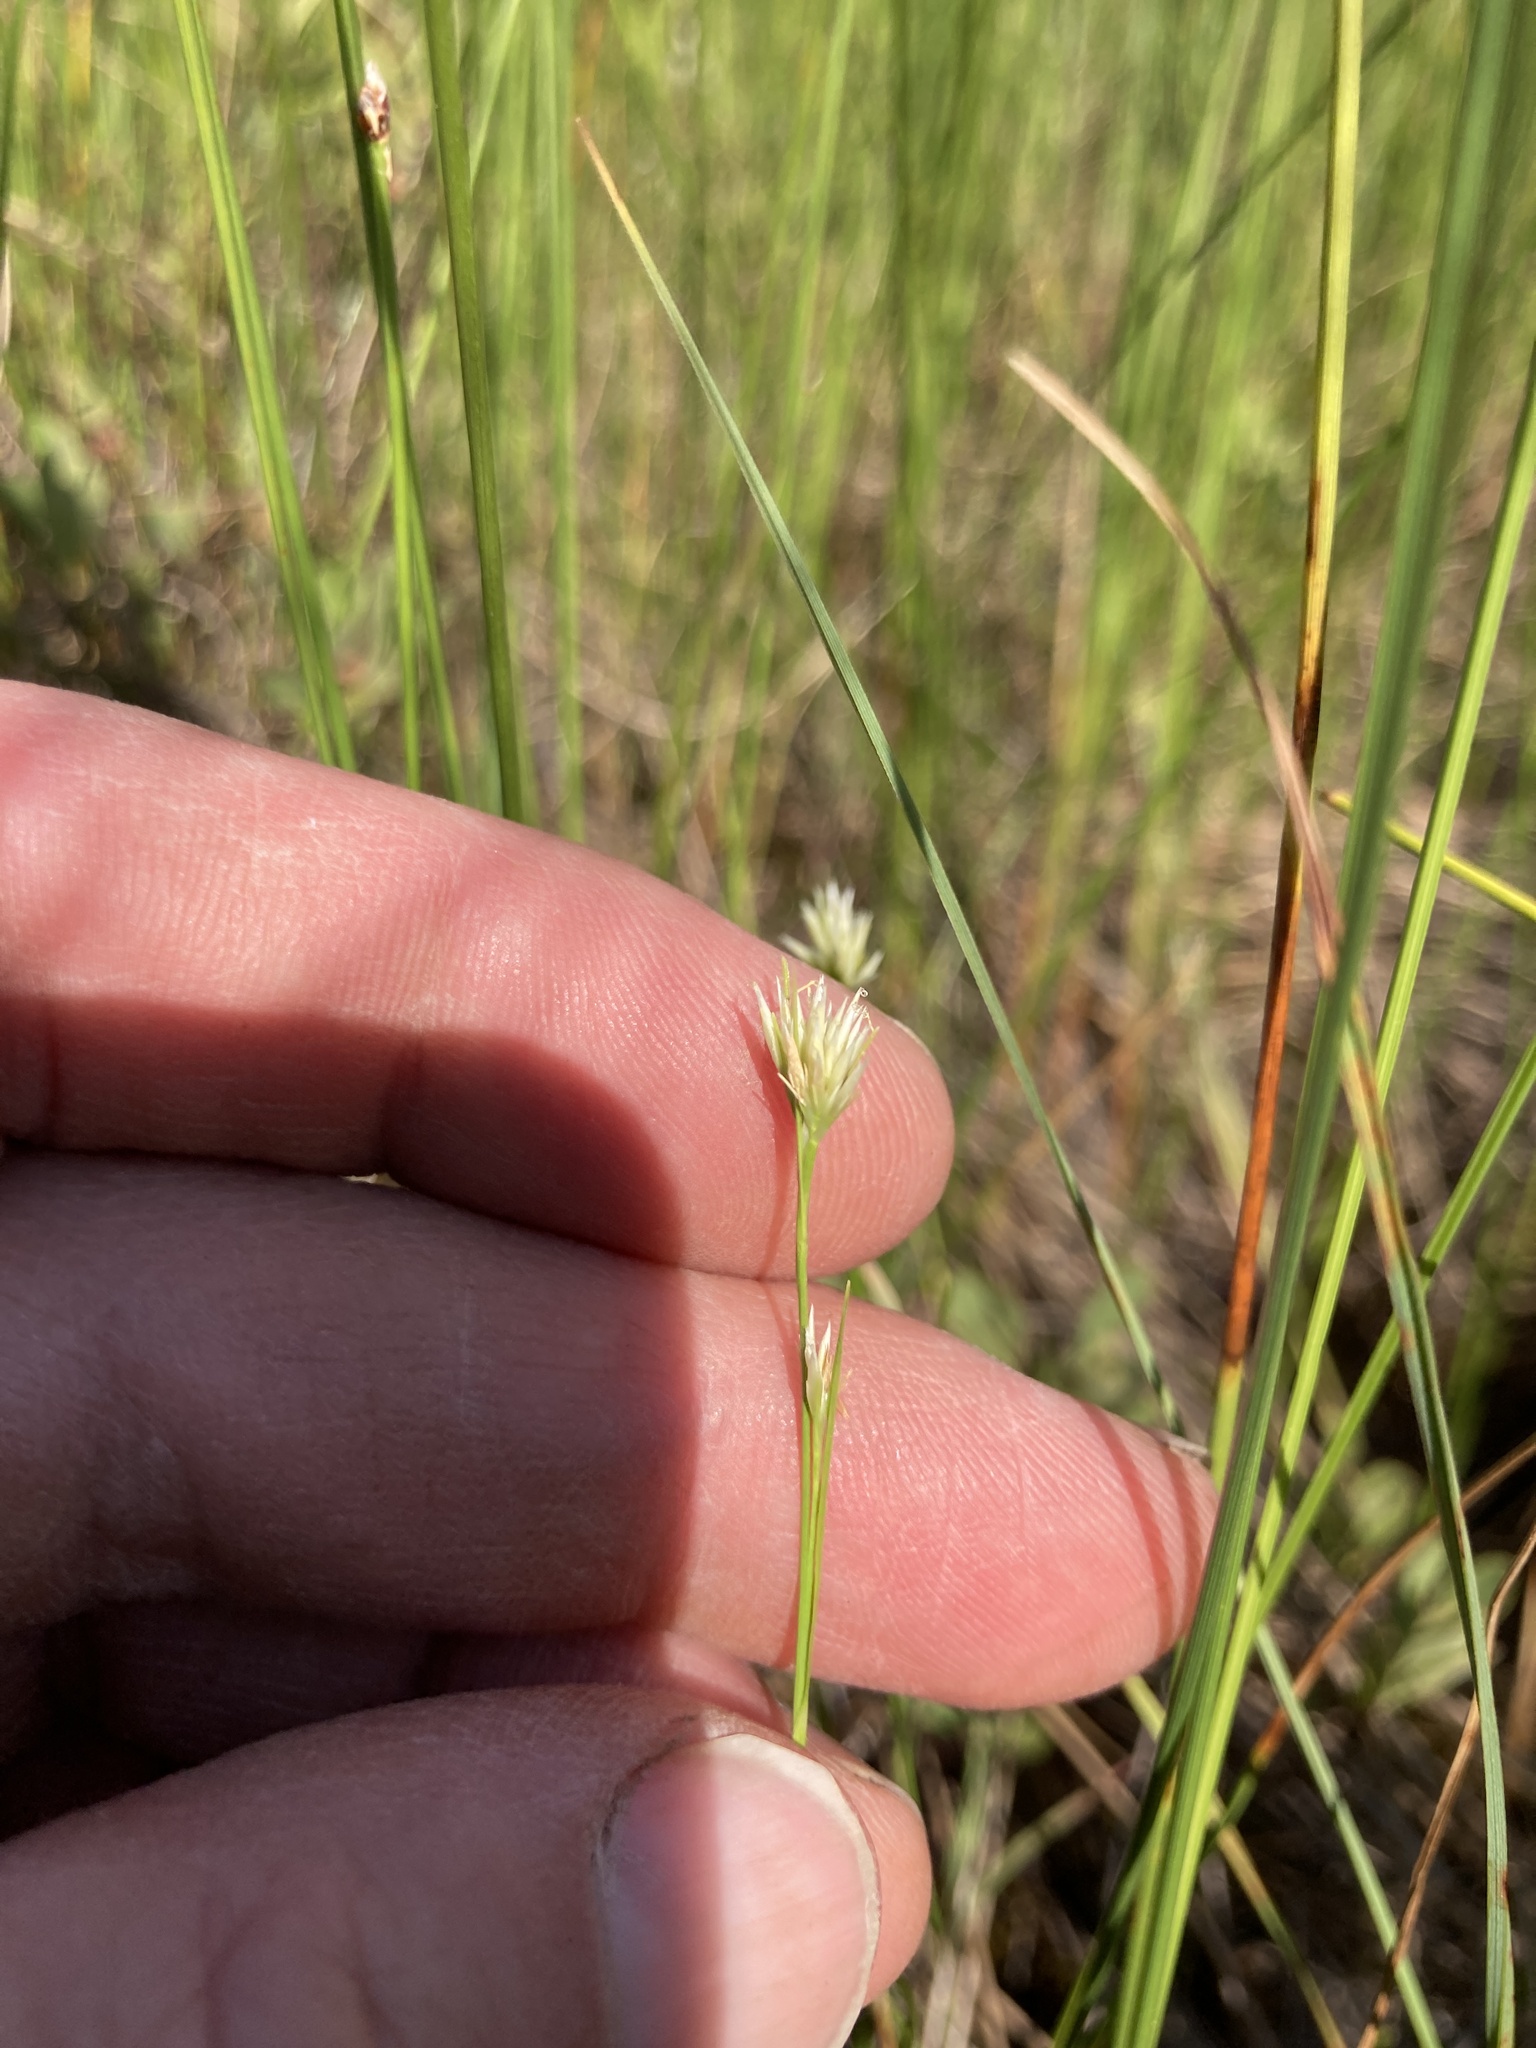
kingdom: Plantae
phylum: Tracheophyta
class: Liliopsida
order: Poales
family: Cyperaceae
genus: Rhynchospora
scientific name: Rhynchospora alba
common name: White beak-sedge
